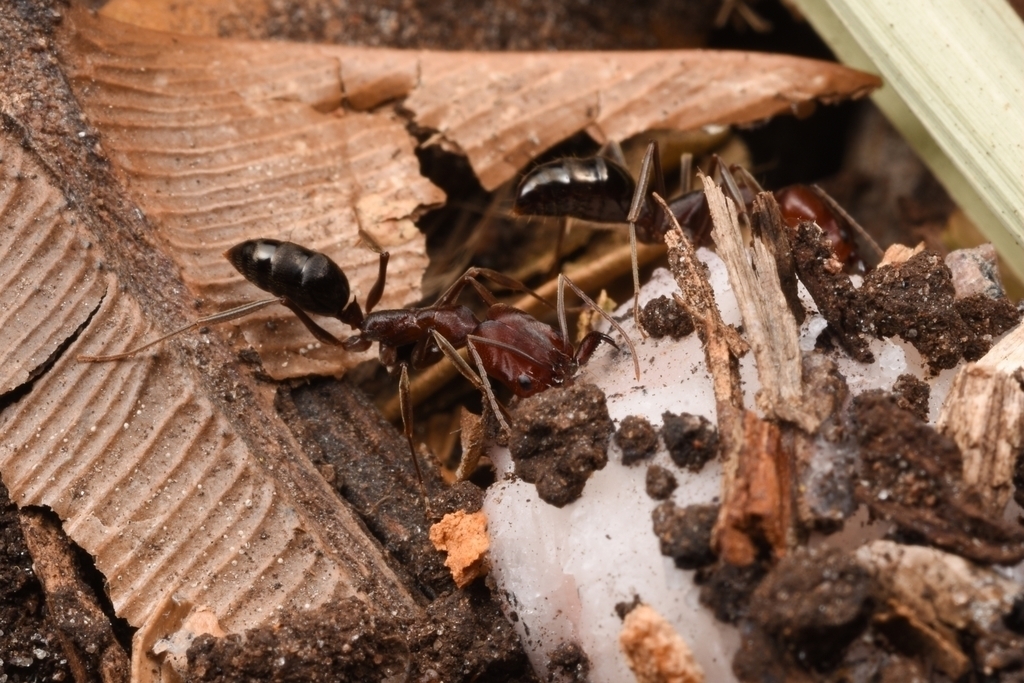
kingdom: Animalia
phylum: Arthropoda
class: Insecta
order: Hymenoptera
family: Formicidae
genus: Odontomachus
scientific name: Odontomachus cephalotes
